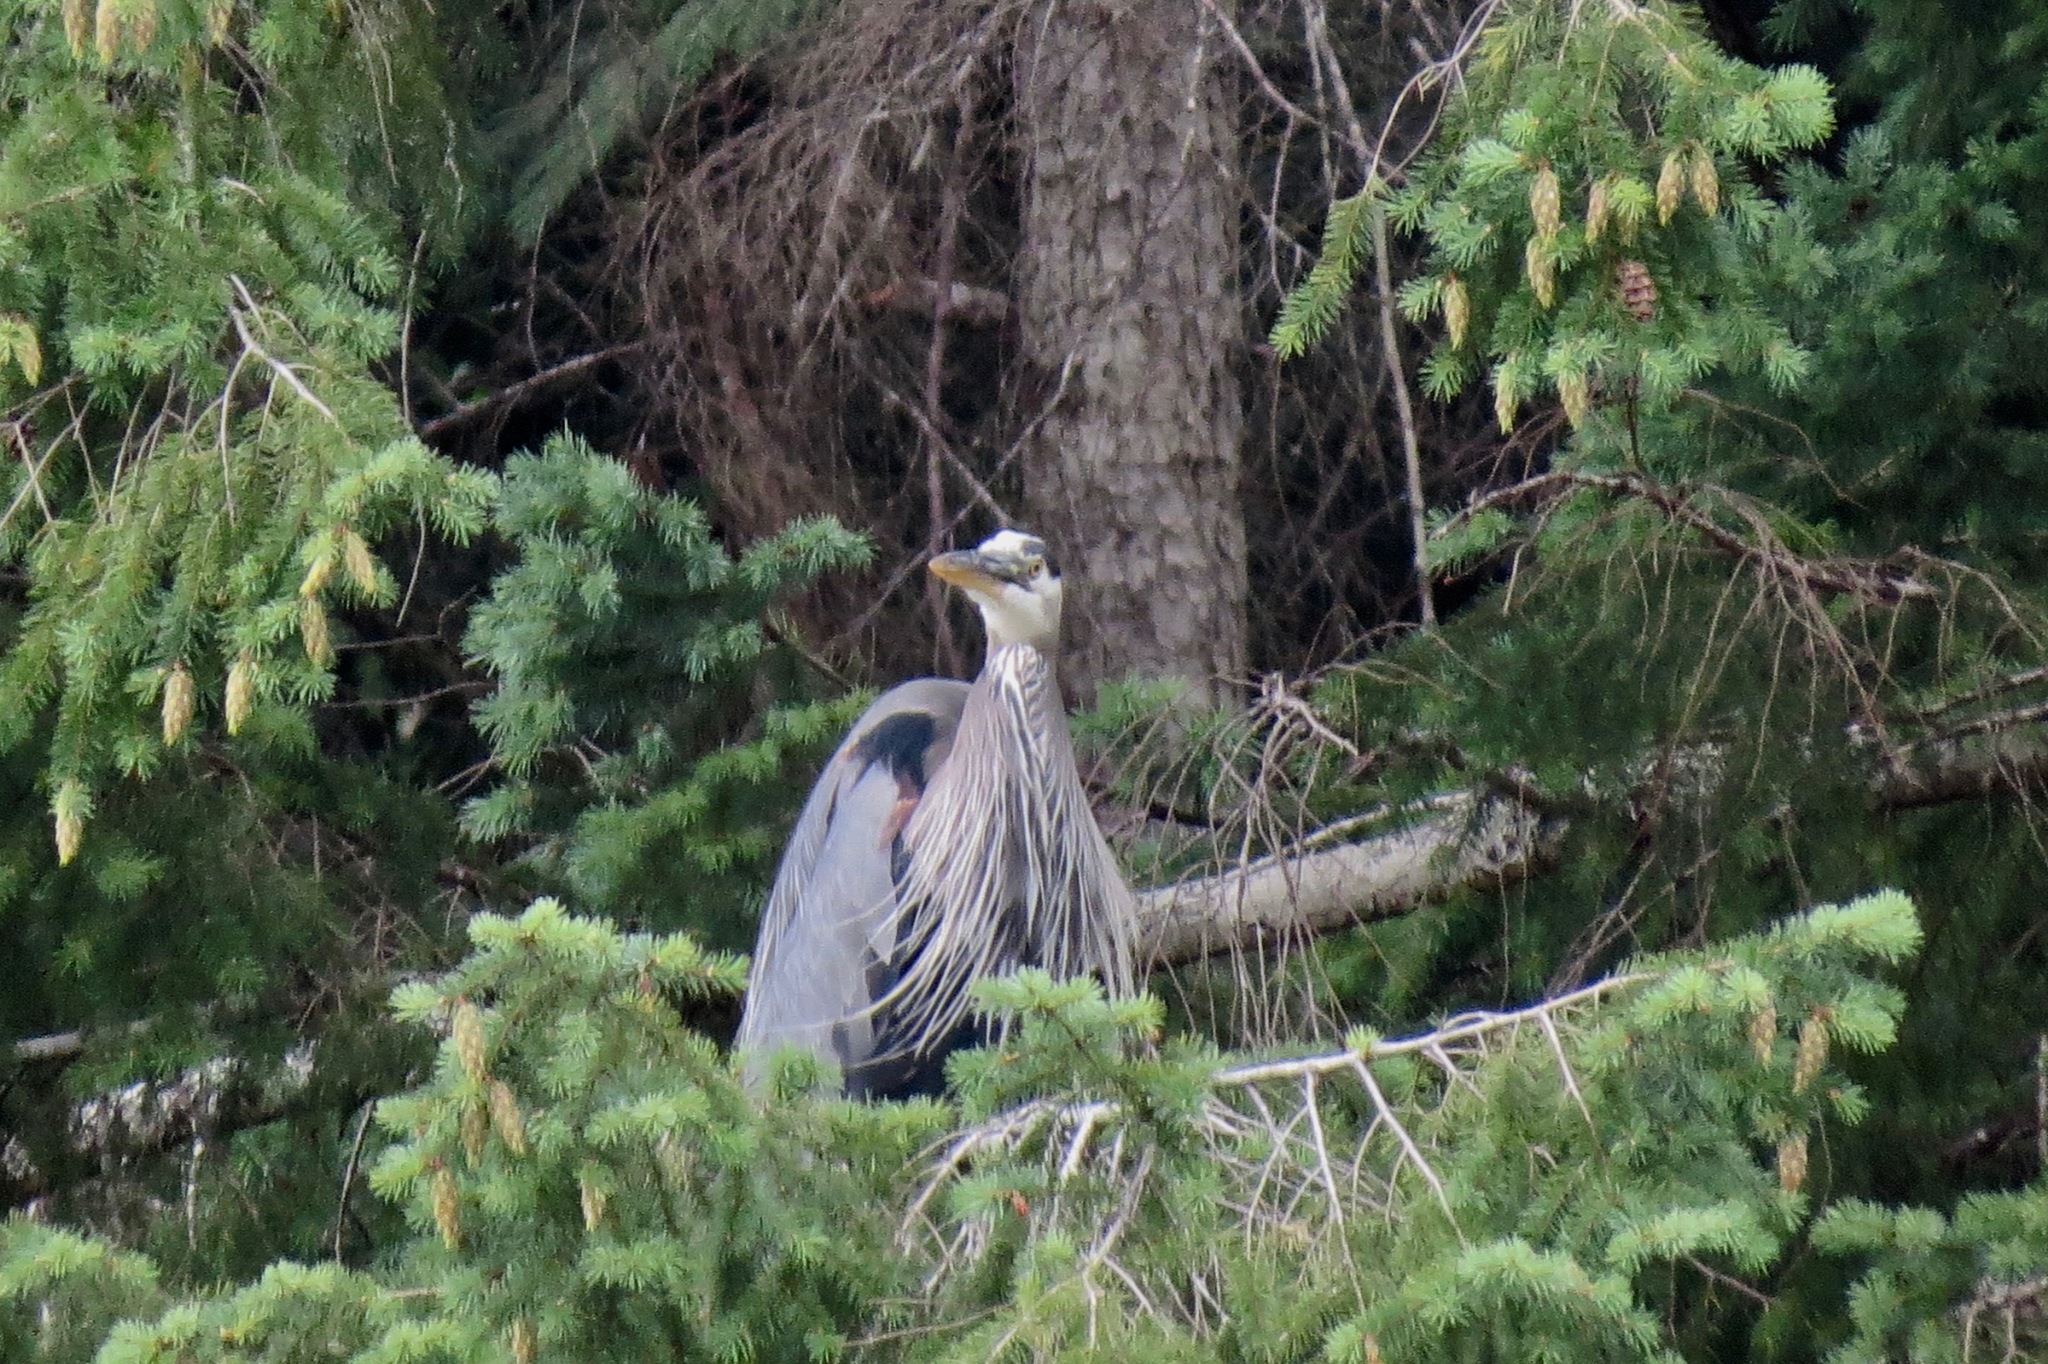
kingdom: Animalia
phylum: Chordata
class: Aves
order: Pelecaniformes
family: Ardeidae
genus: Ardea
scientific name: Ardea herodias
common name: Great blue heron
